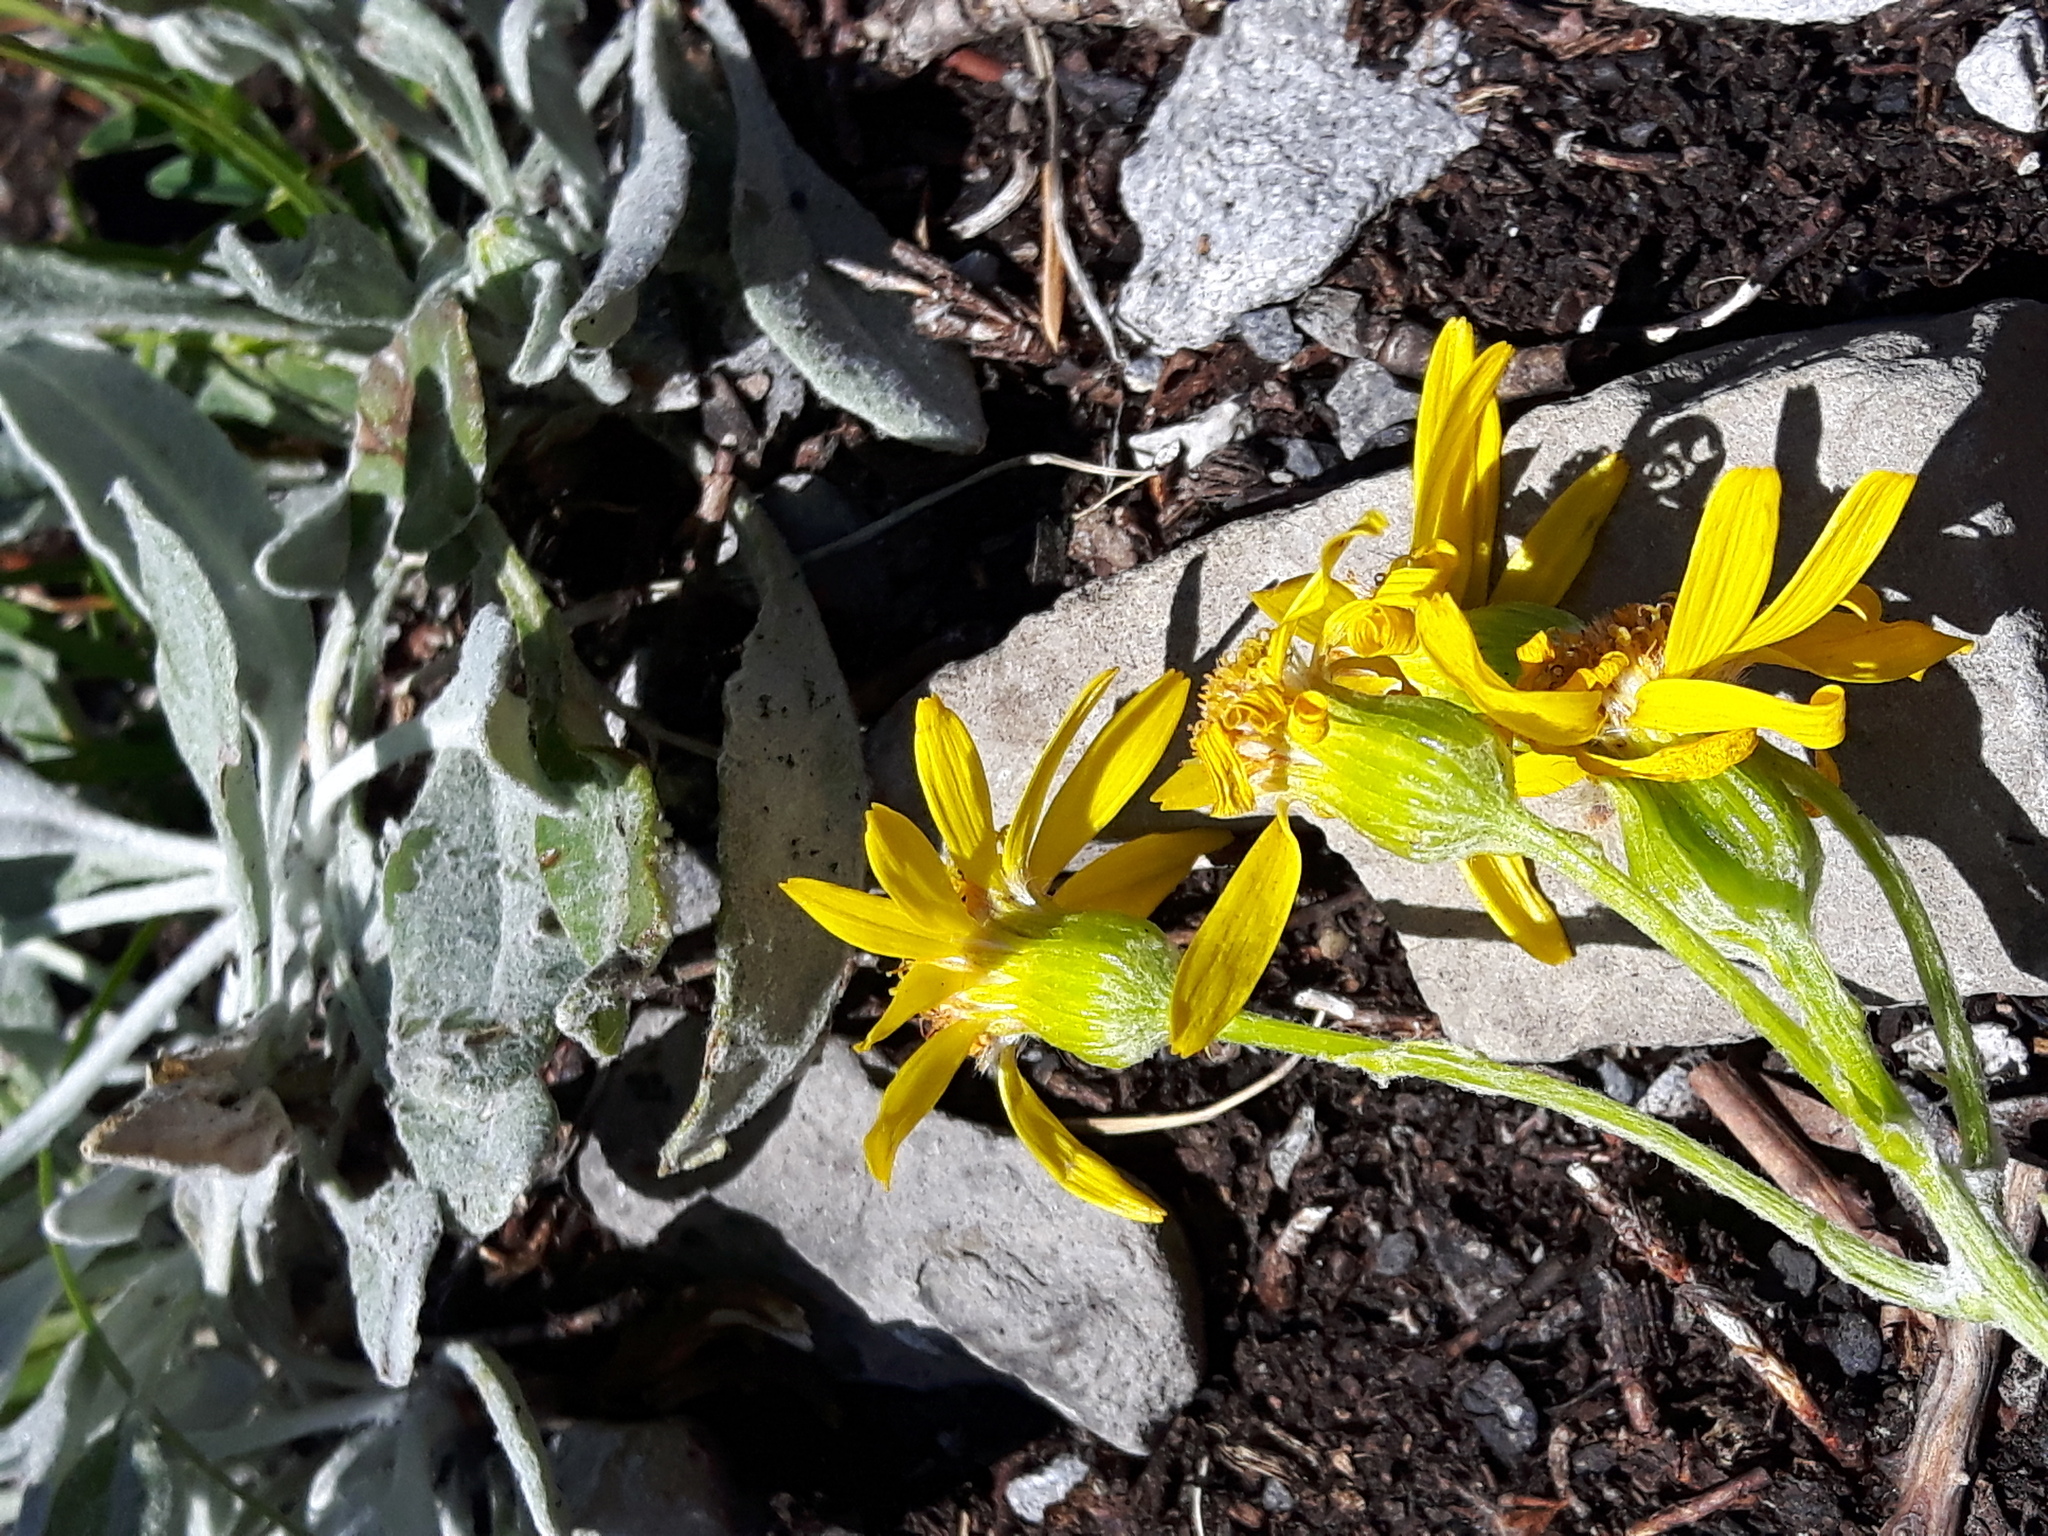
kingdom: Plantae
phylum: Tracheophyta
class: Magnoliopsida
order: Asterales
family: Asteraceae
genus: Packera
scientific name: Packera cana
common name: Woolly groundsel
